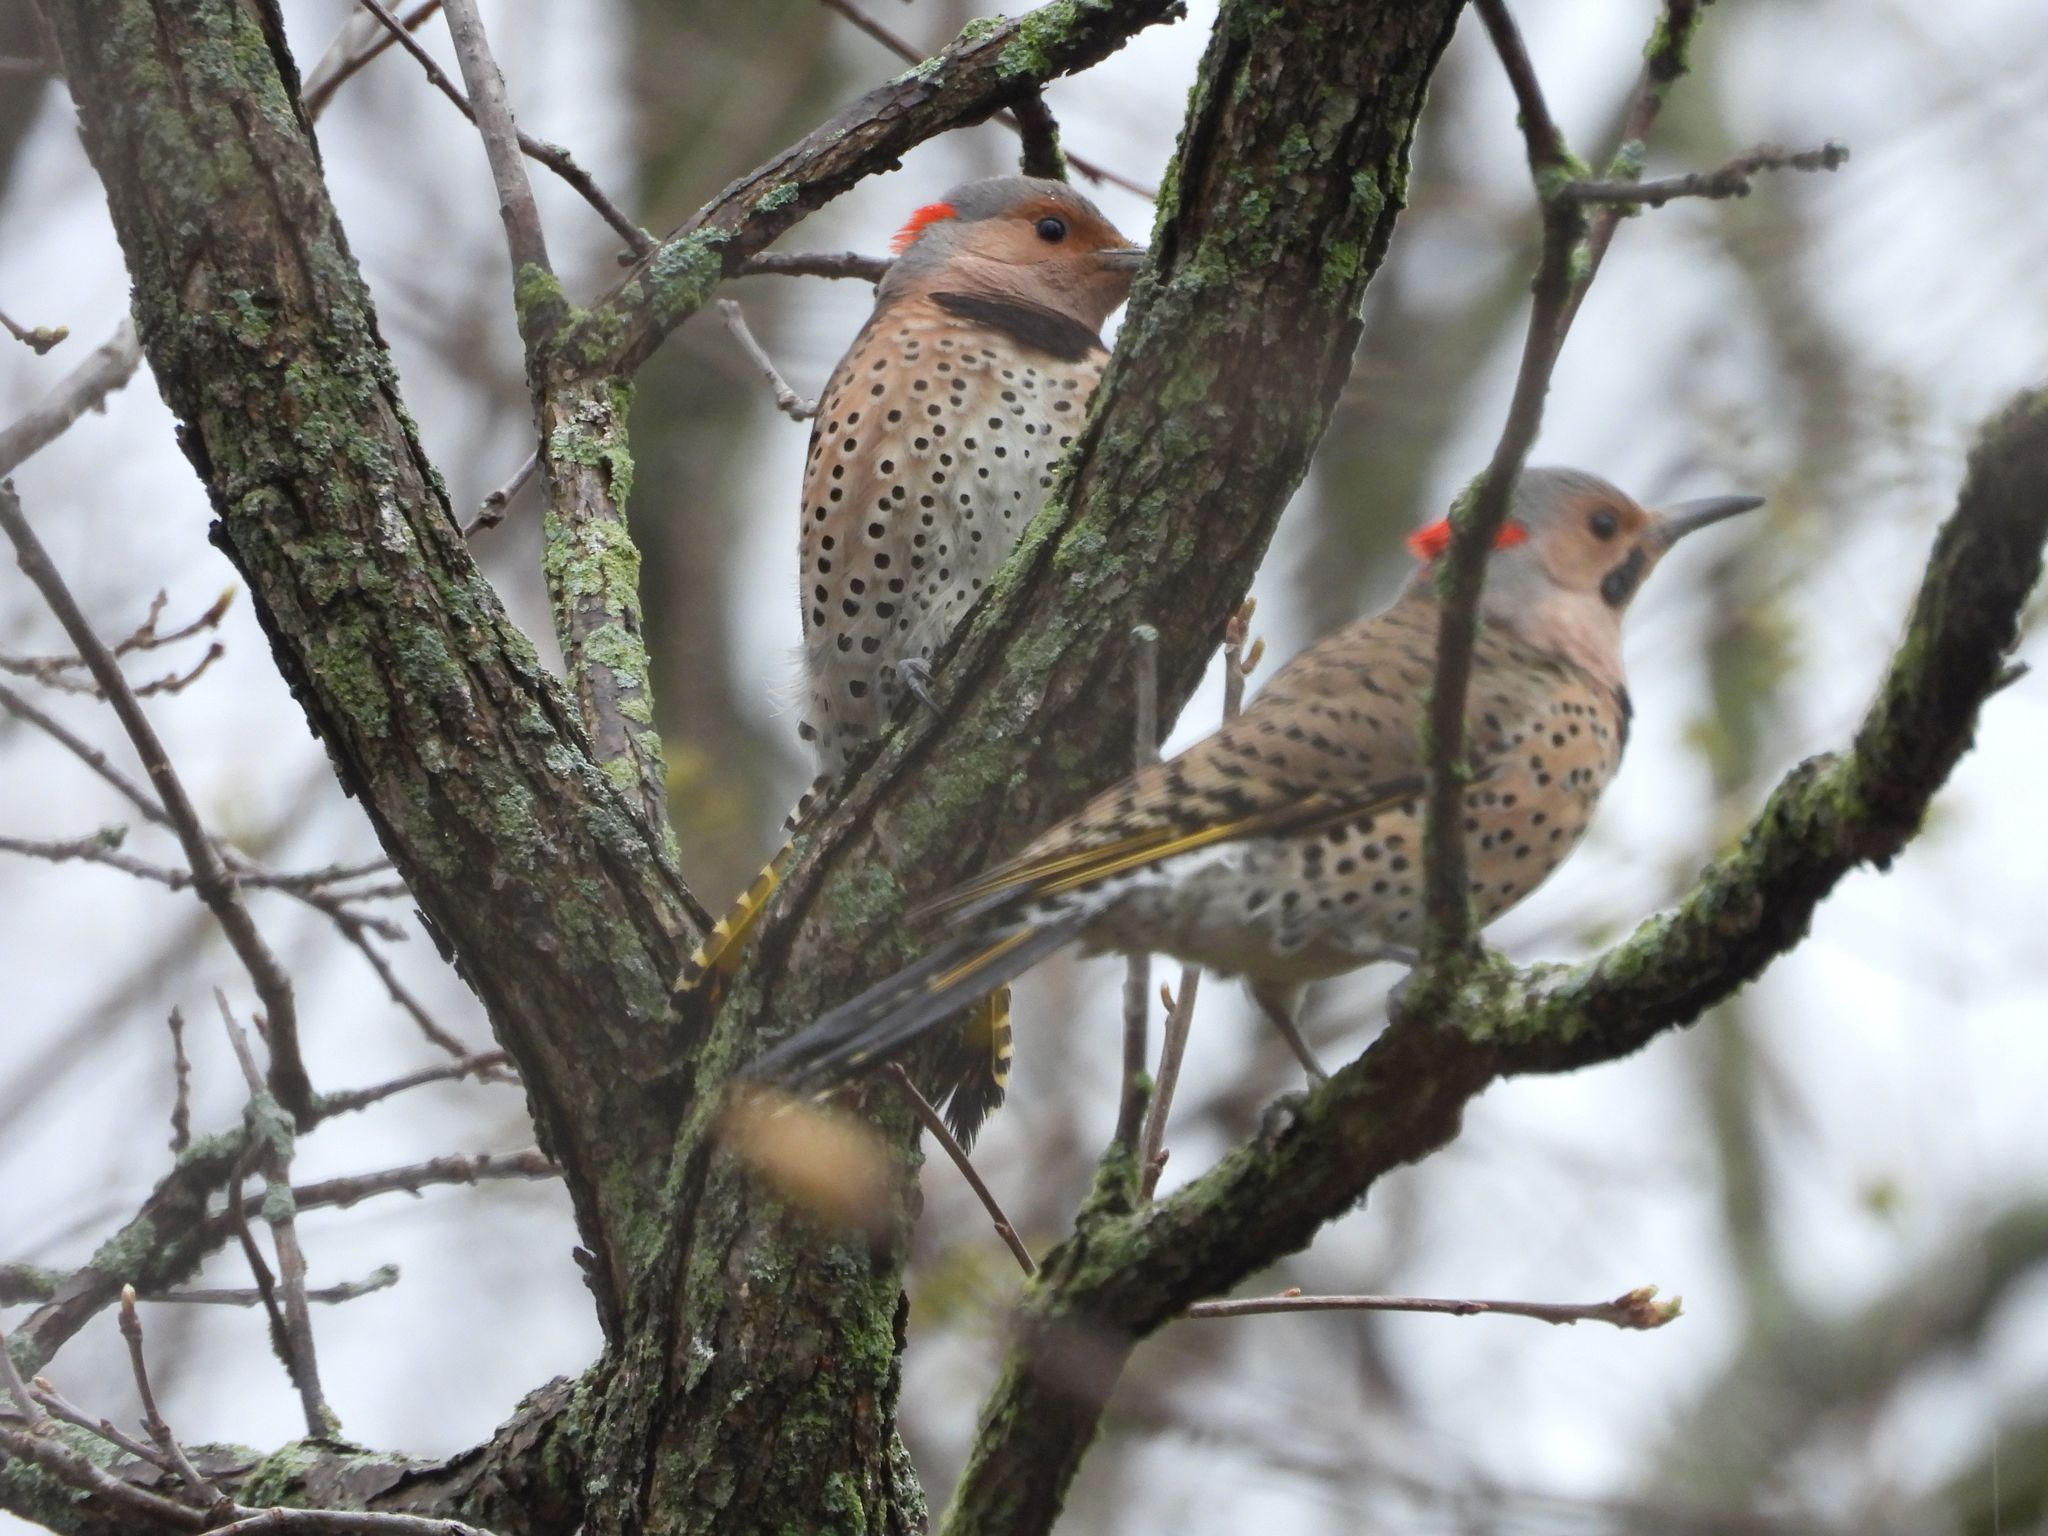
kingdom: Animalia
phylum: Chordata
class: Aves
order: Piciformes
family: Picidae
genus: Colaptes
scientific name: Colaptes auratus
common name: Northern flicker
